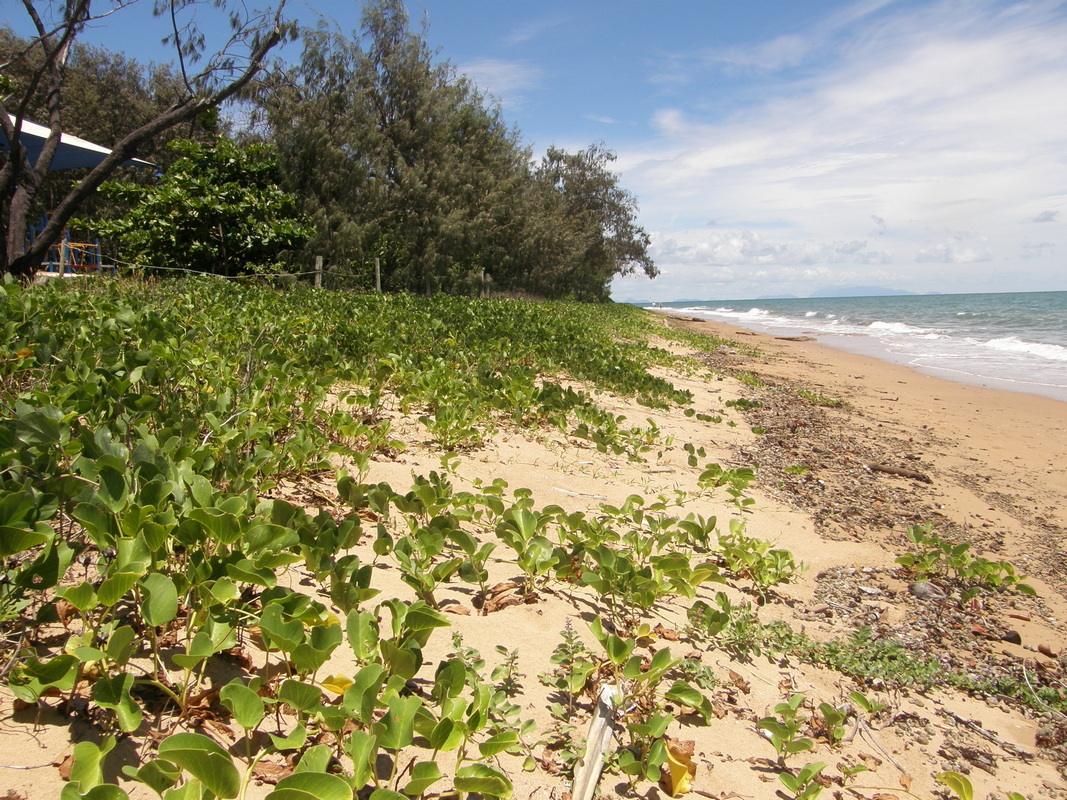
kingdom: Plantae
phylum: Tracheophyta
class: Magnoliopsida
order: Solanales
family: Convolvulaceae
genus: Ipomoea
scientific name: Ipomoea pes-caprae
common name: Beach morning glory
